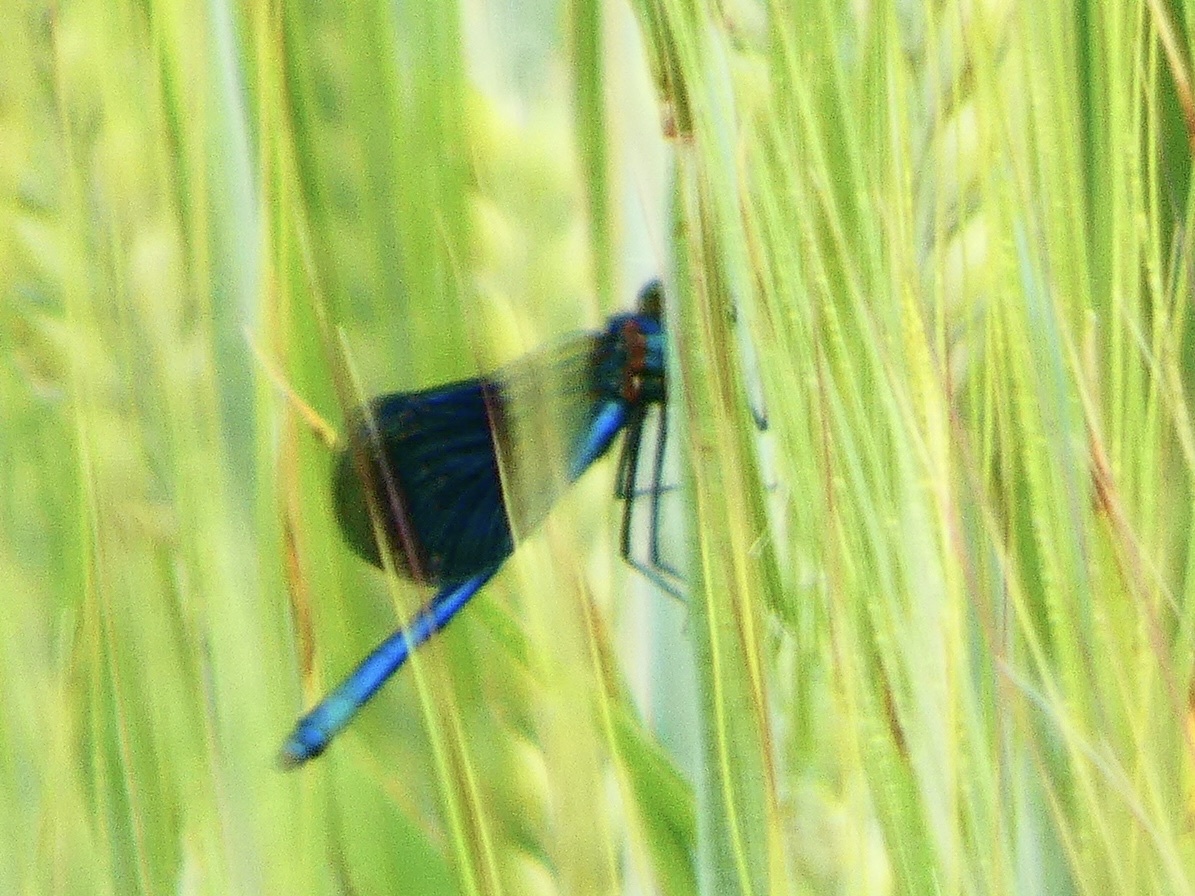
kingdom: Animalia
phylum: Arthropoda
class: Insecta
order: Odonata
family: Calopterygidae
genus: Calopteryx
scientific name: Calopteryx splendens
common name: Banded demoiselle
